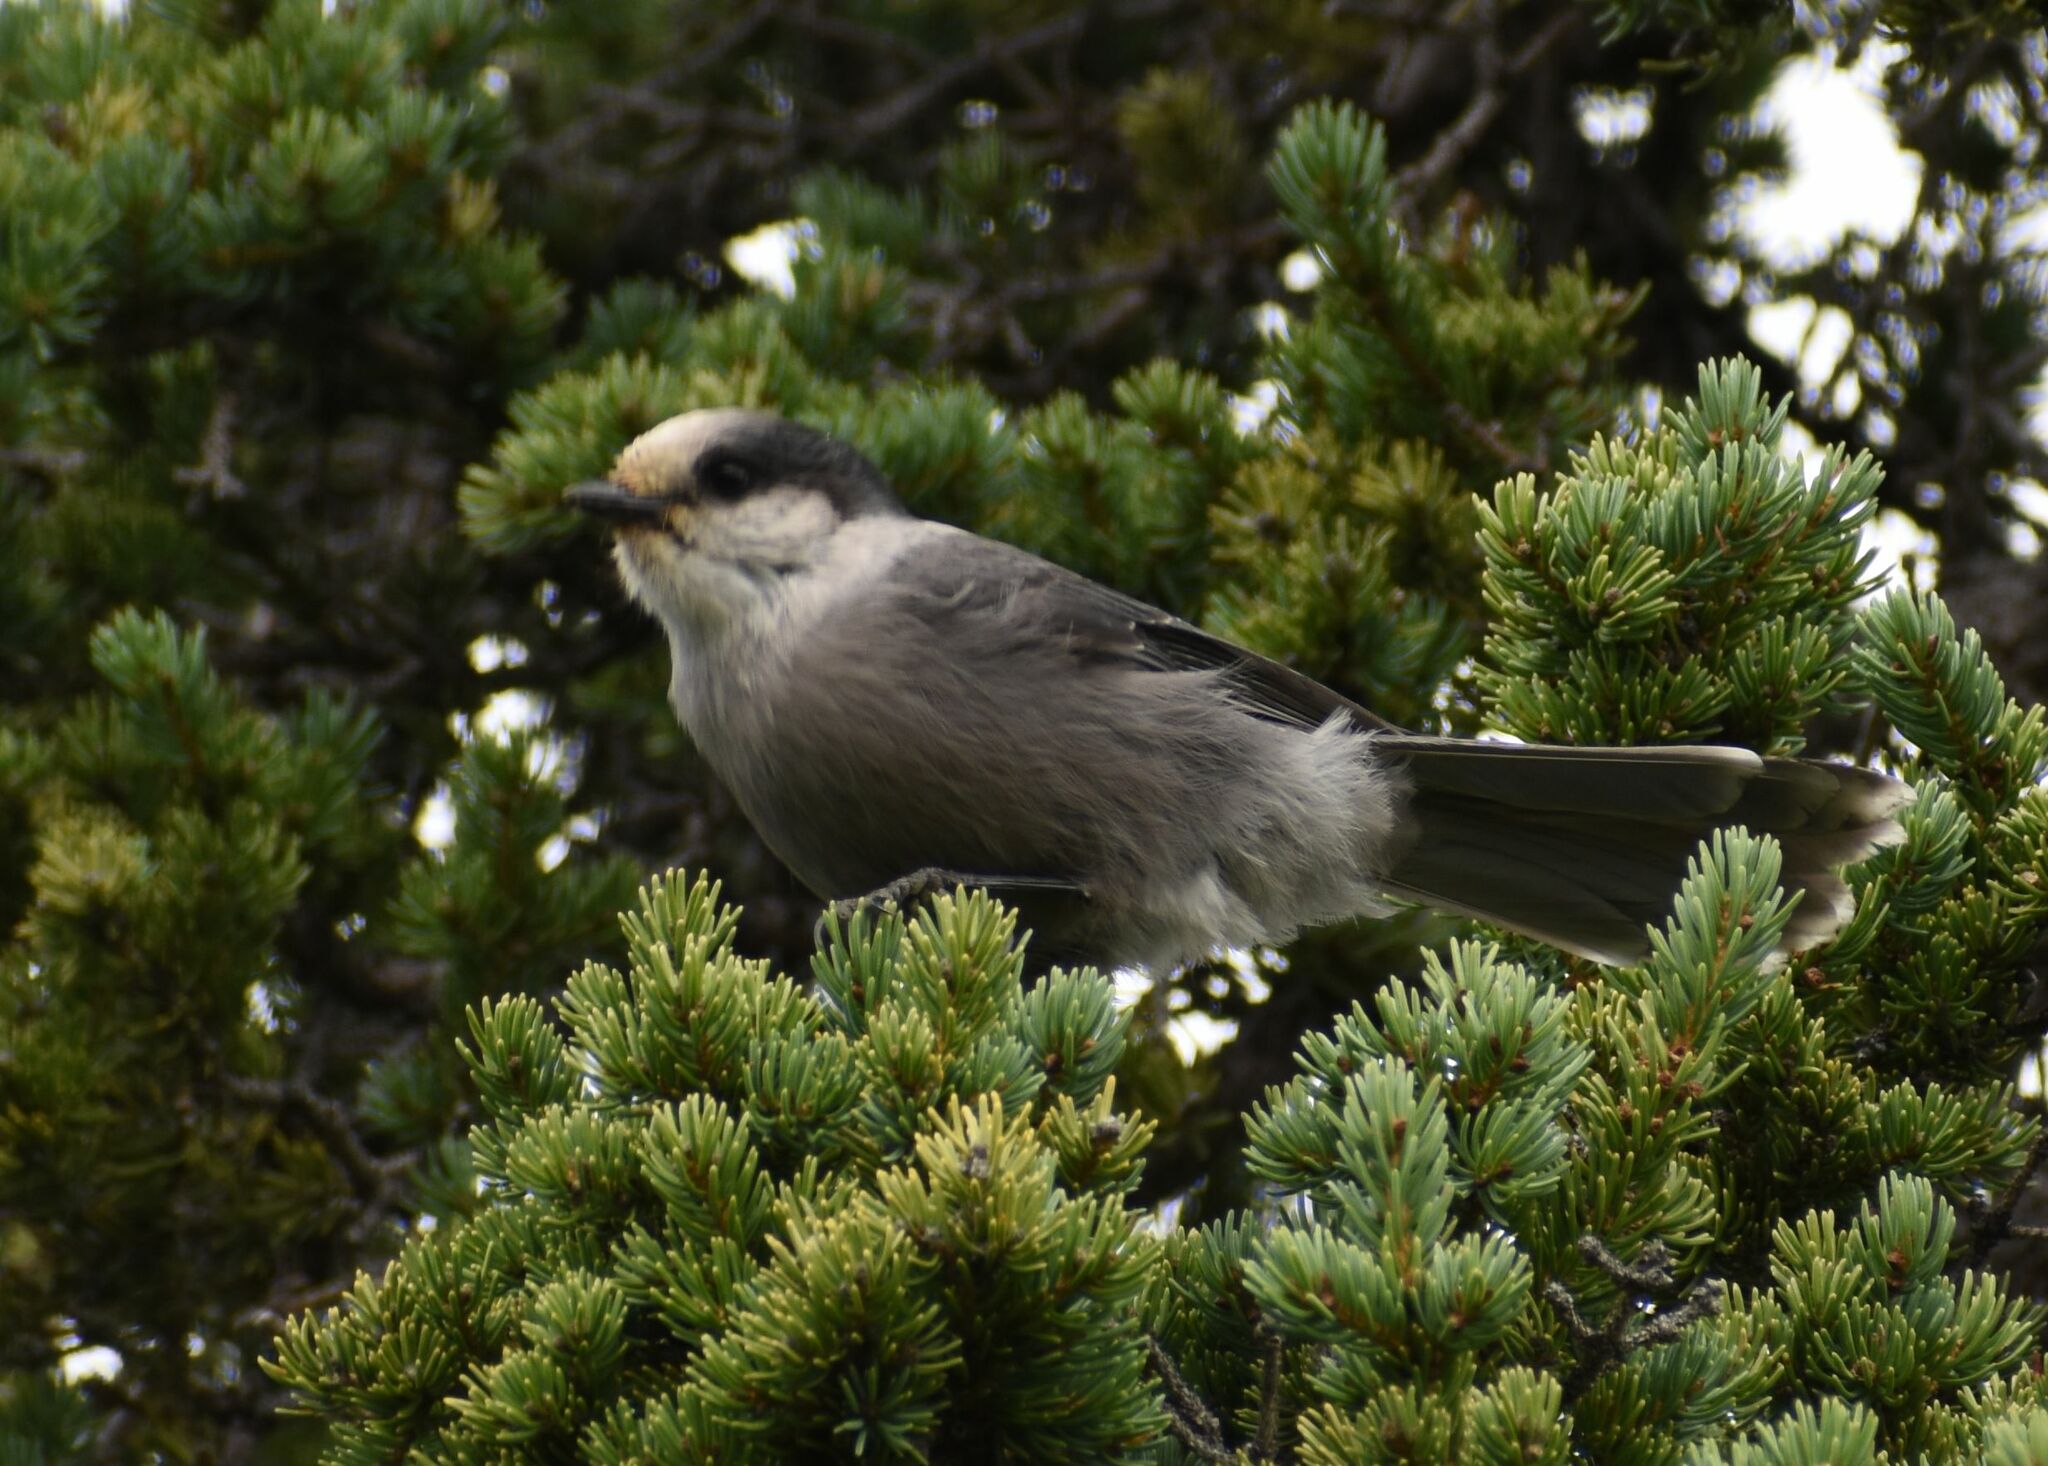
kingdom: Animalia
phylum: Chordata
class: Aves
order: Passeriformes
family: Corvidae
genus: Perisoreus
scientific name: Perisoreus canadensis
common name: Gray jay
